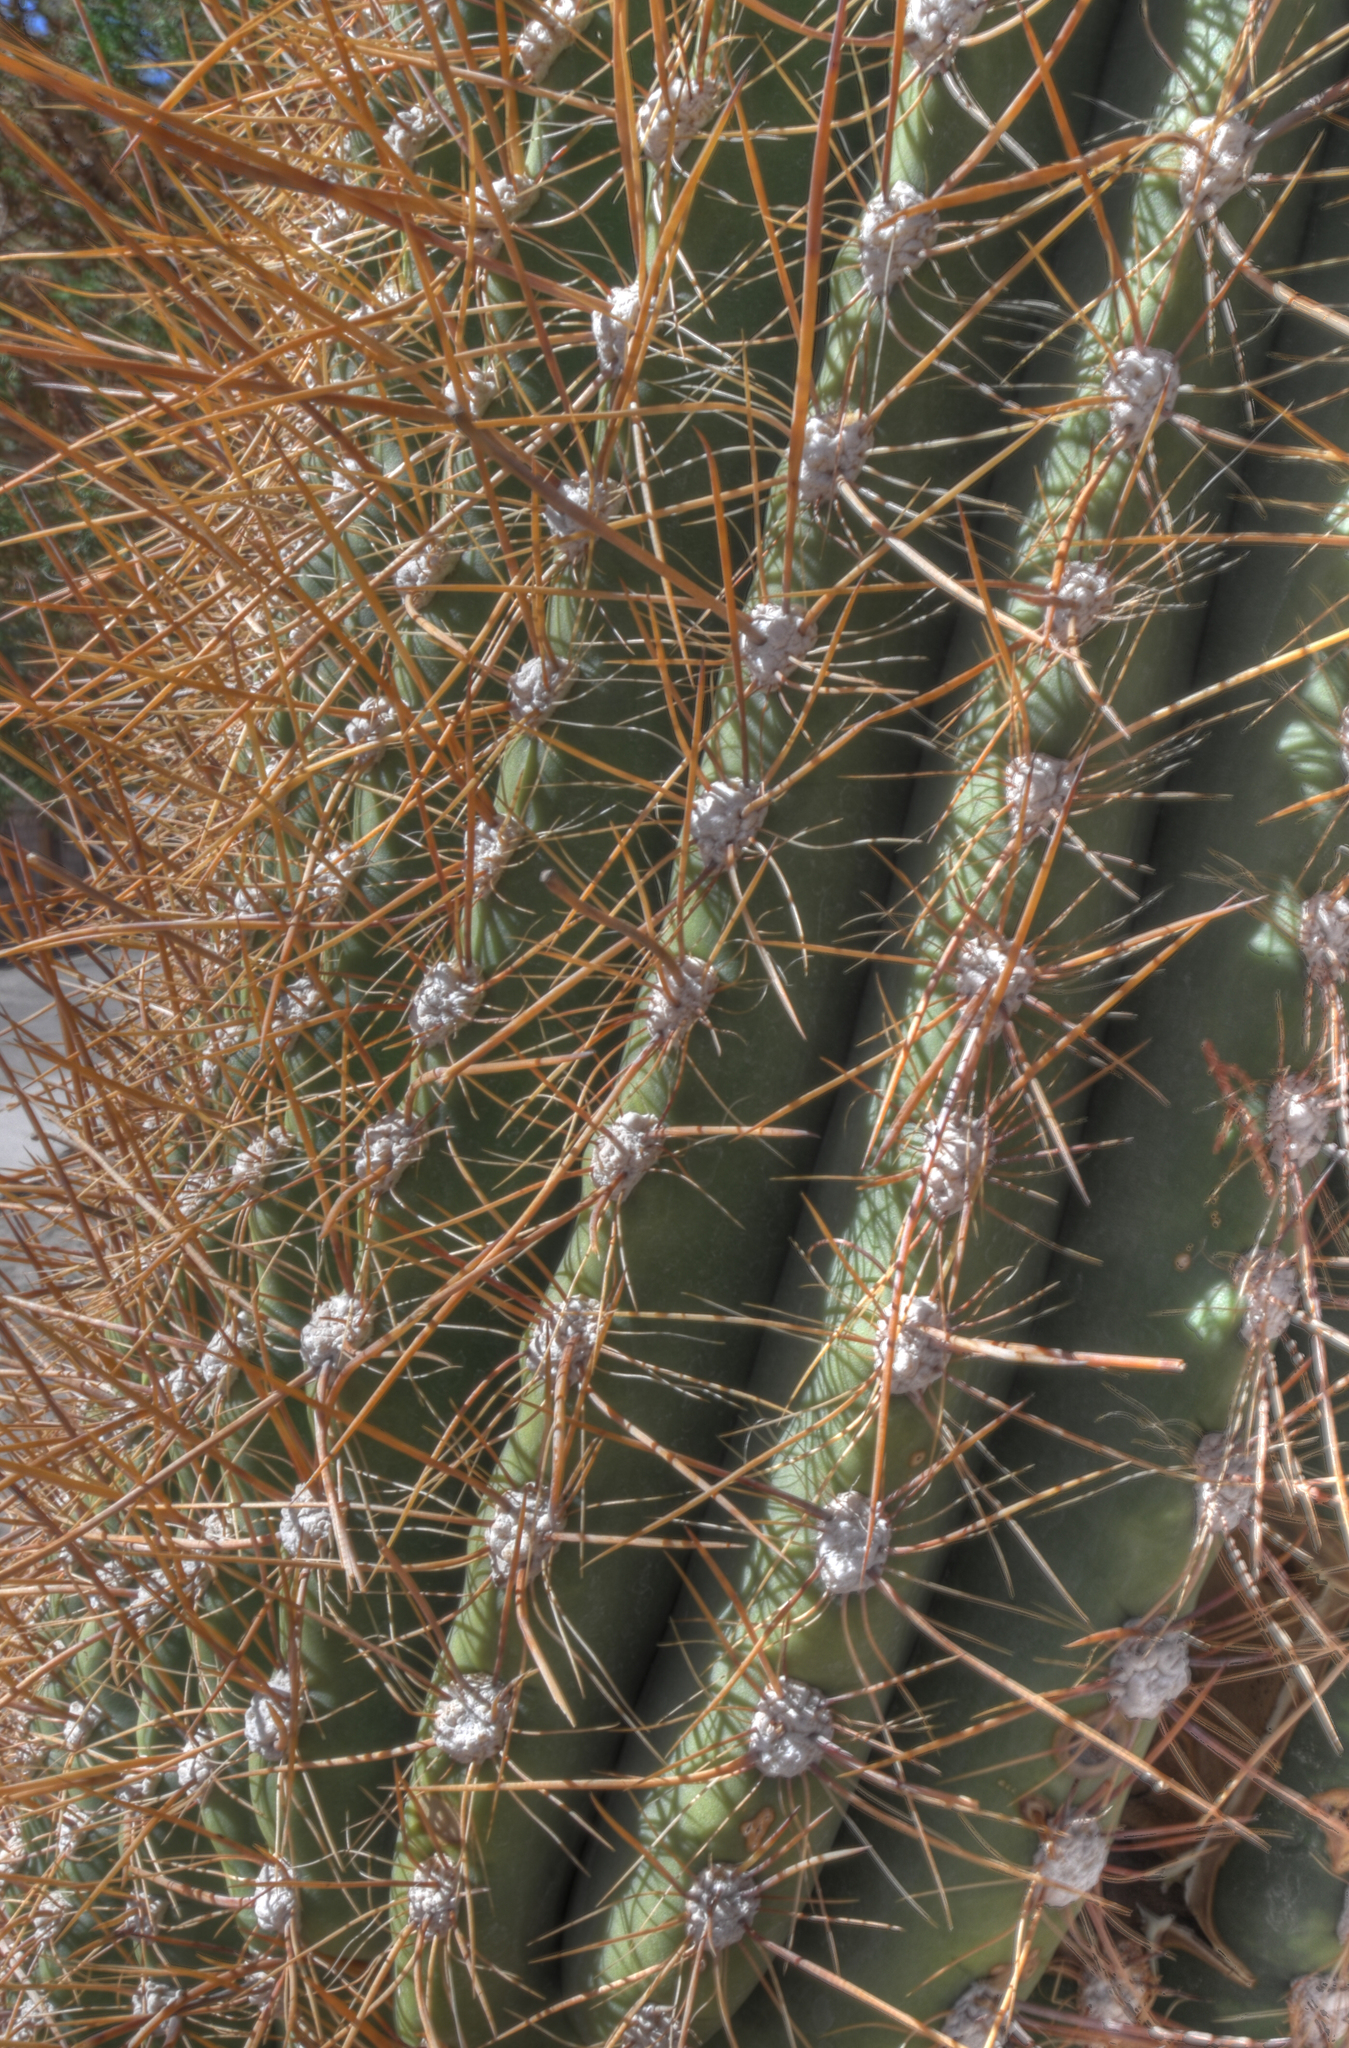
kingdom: Plantae
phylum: Tracheophyta
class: Magnoliopsida
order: Caryophyllales
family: Cactaceae
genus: Leucostele
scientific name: Leucostele atacamensis
